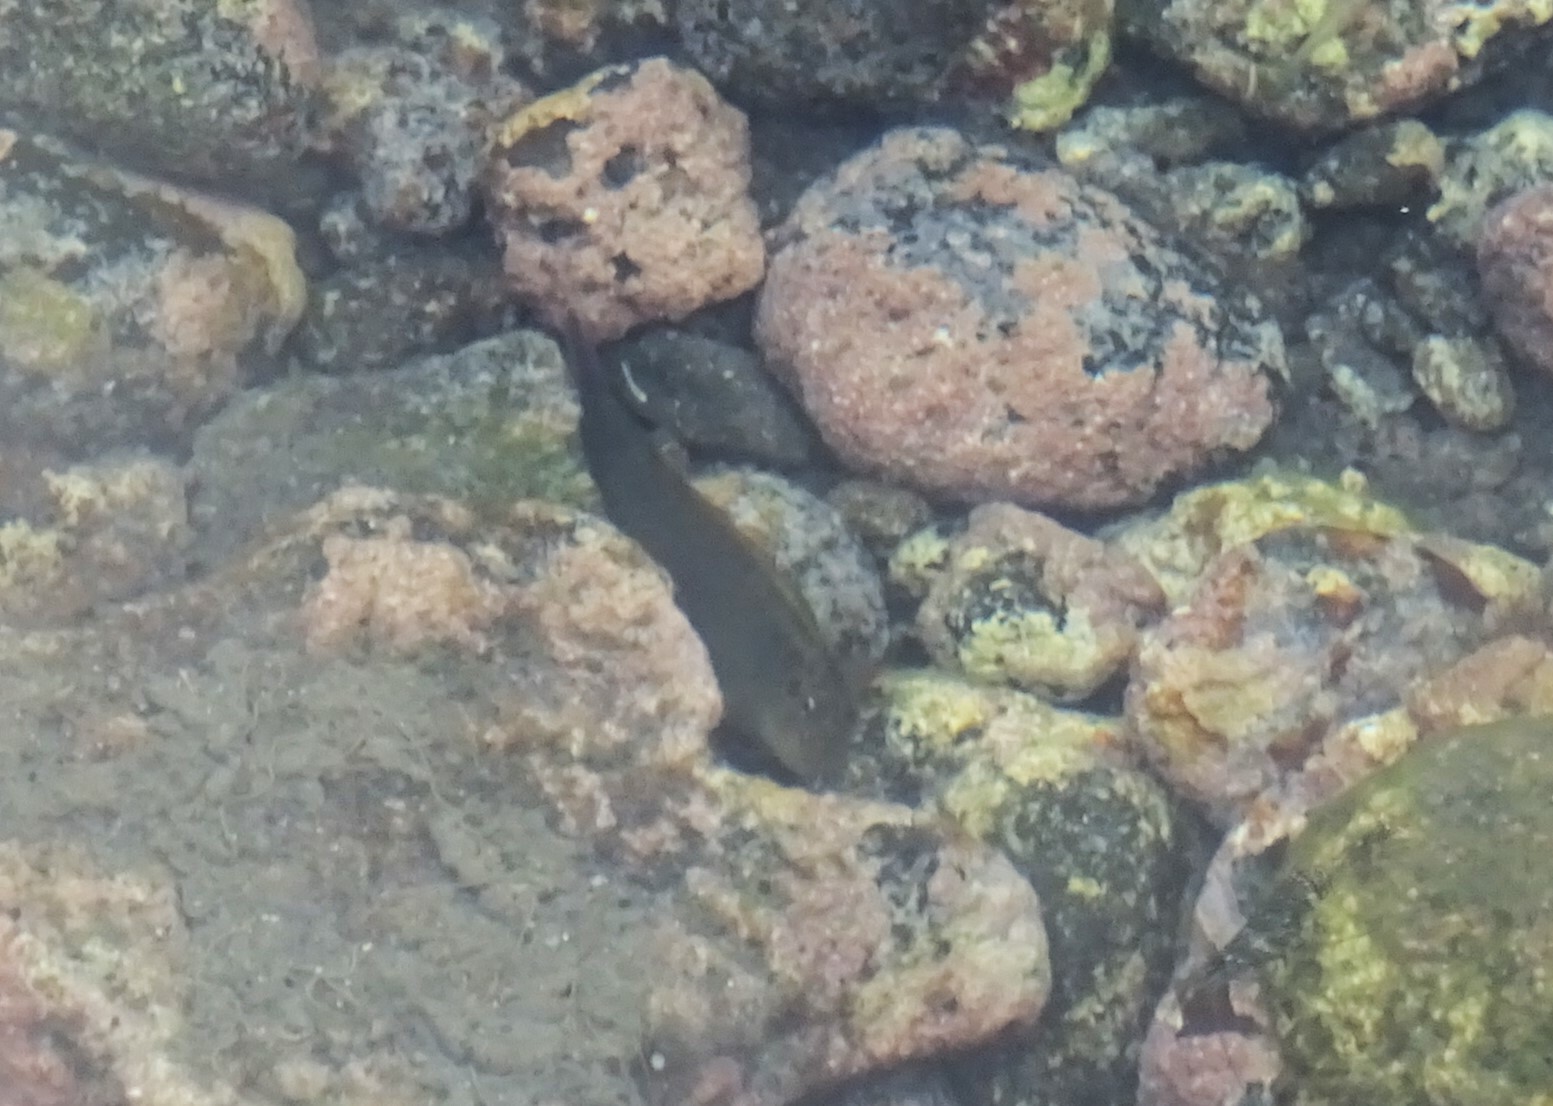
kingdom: Animalia
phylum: Chordata
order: Perciformes
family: Blenniidae
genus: Ophioblennius
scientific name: Ophioblennius atlanticus
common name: Redlip blenny
